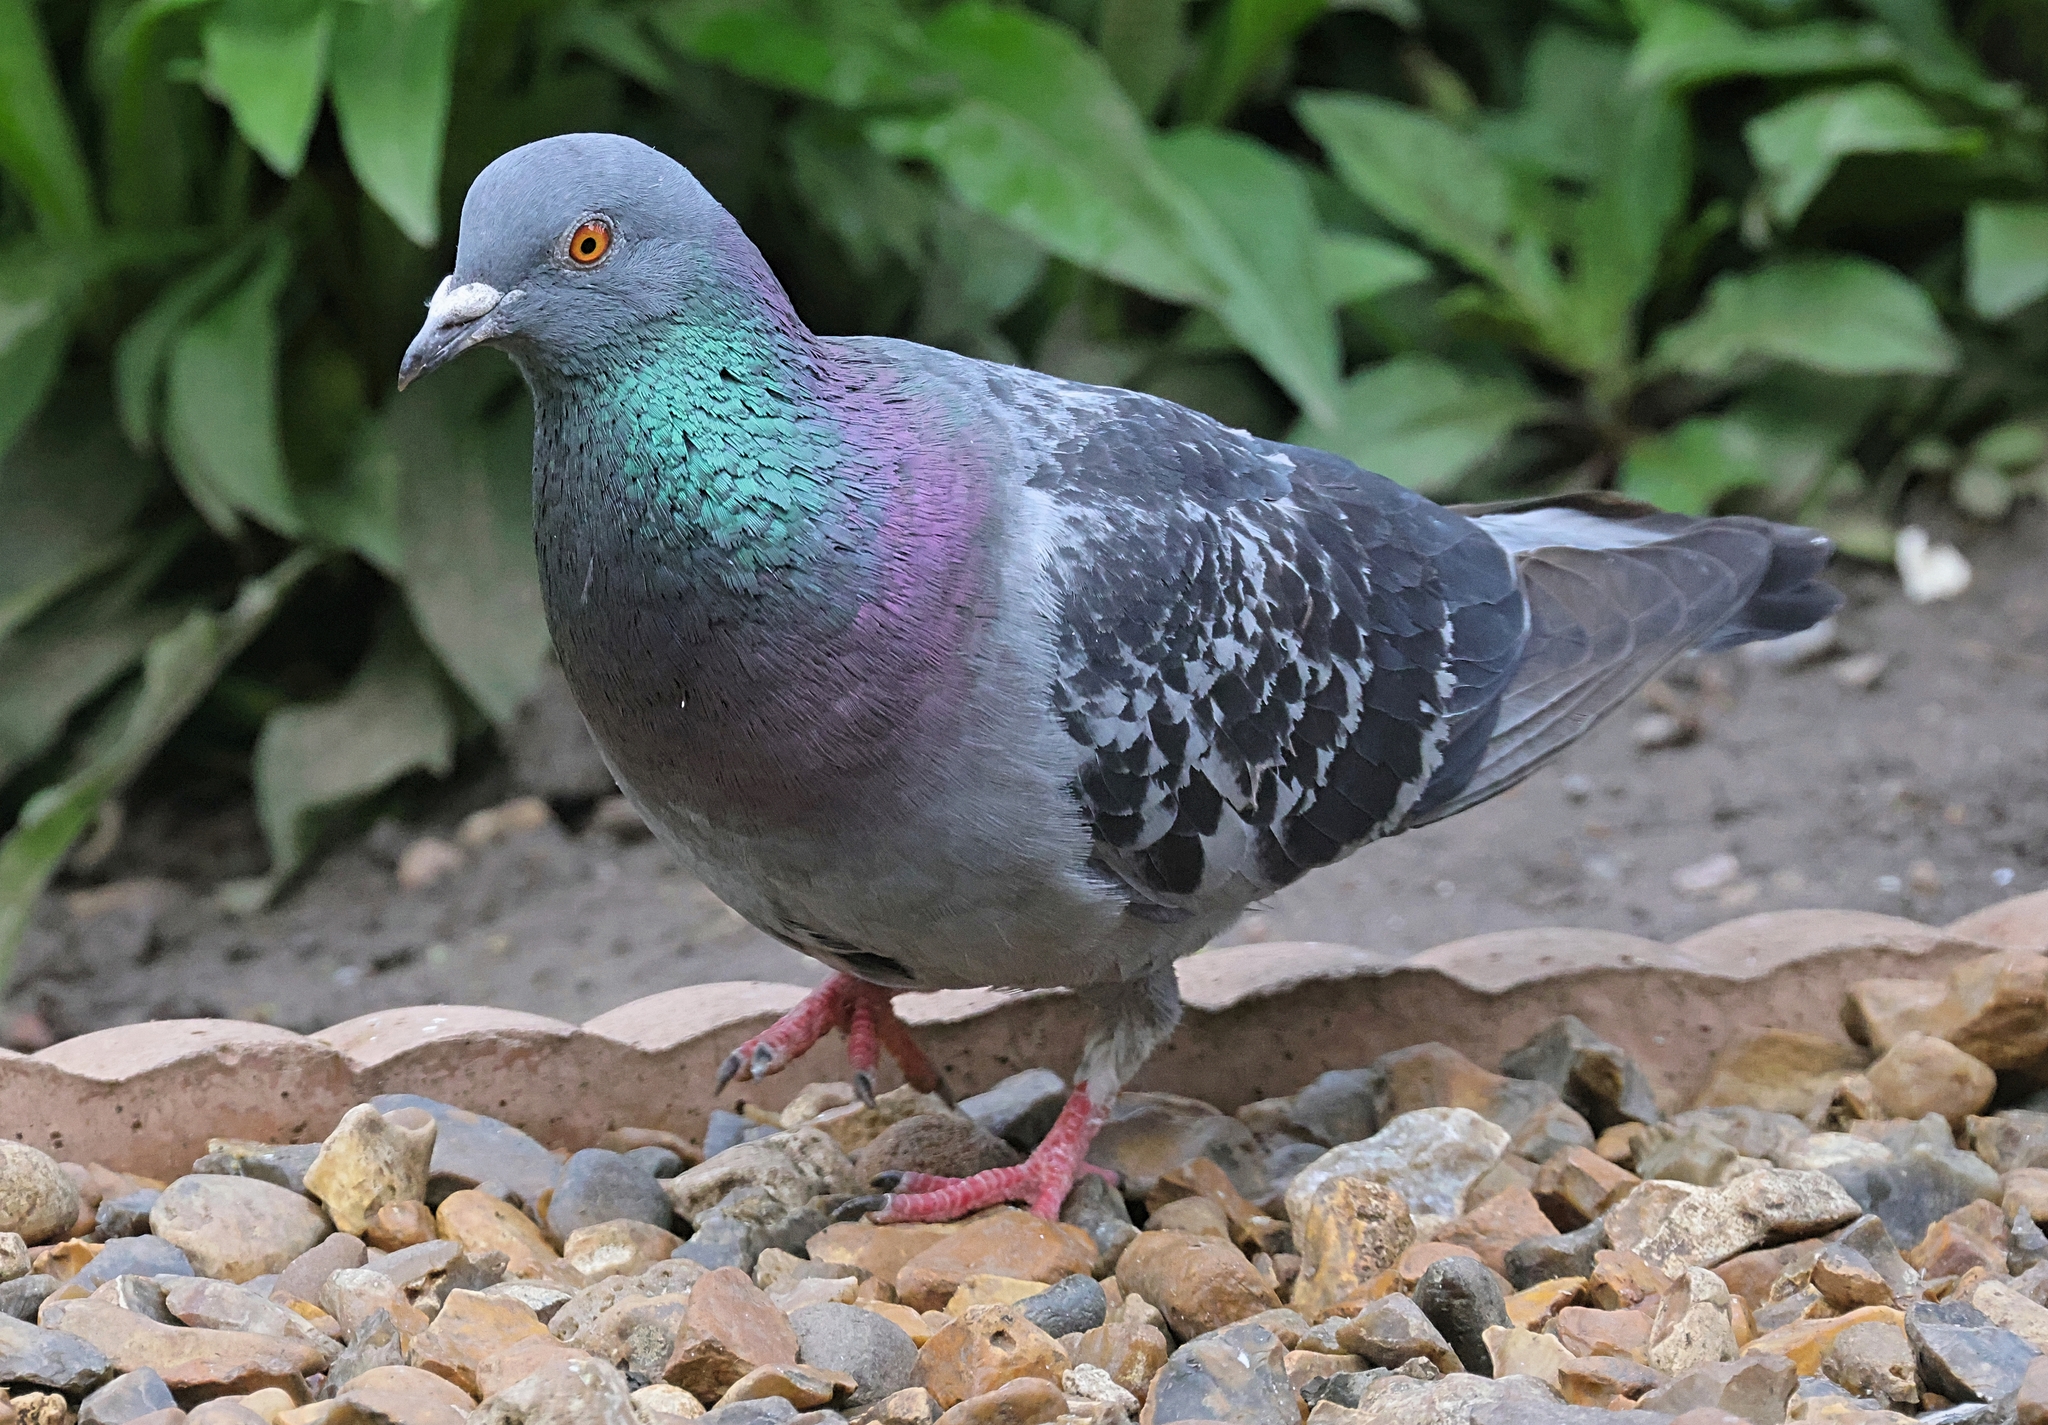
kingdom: Animalia
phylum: Chordata
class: Aves
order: Columbiformes
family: Columbidae
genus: Columba
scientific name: Columba livia
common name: Rock pigeon
